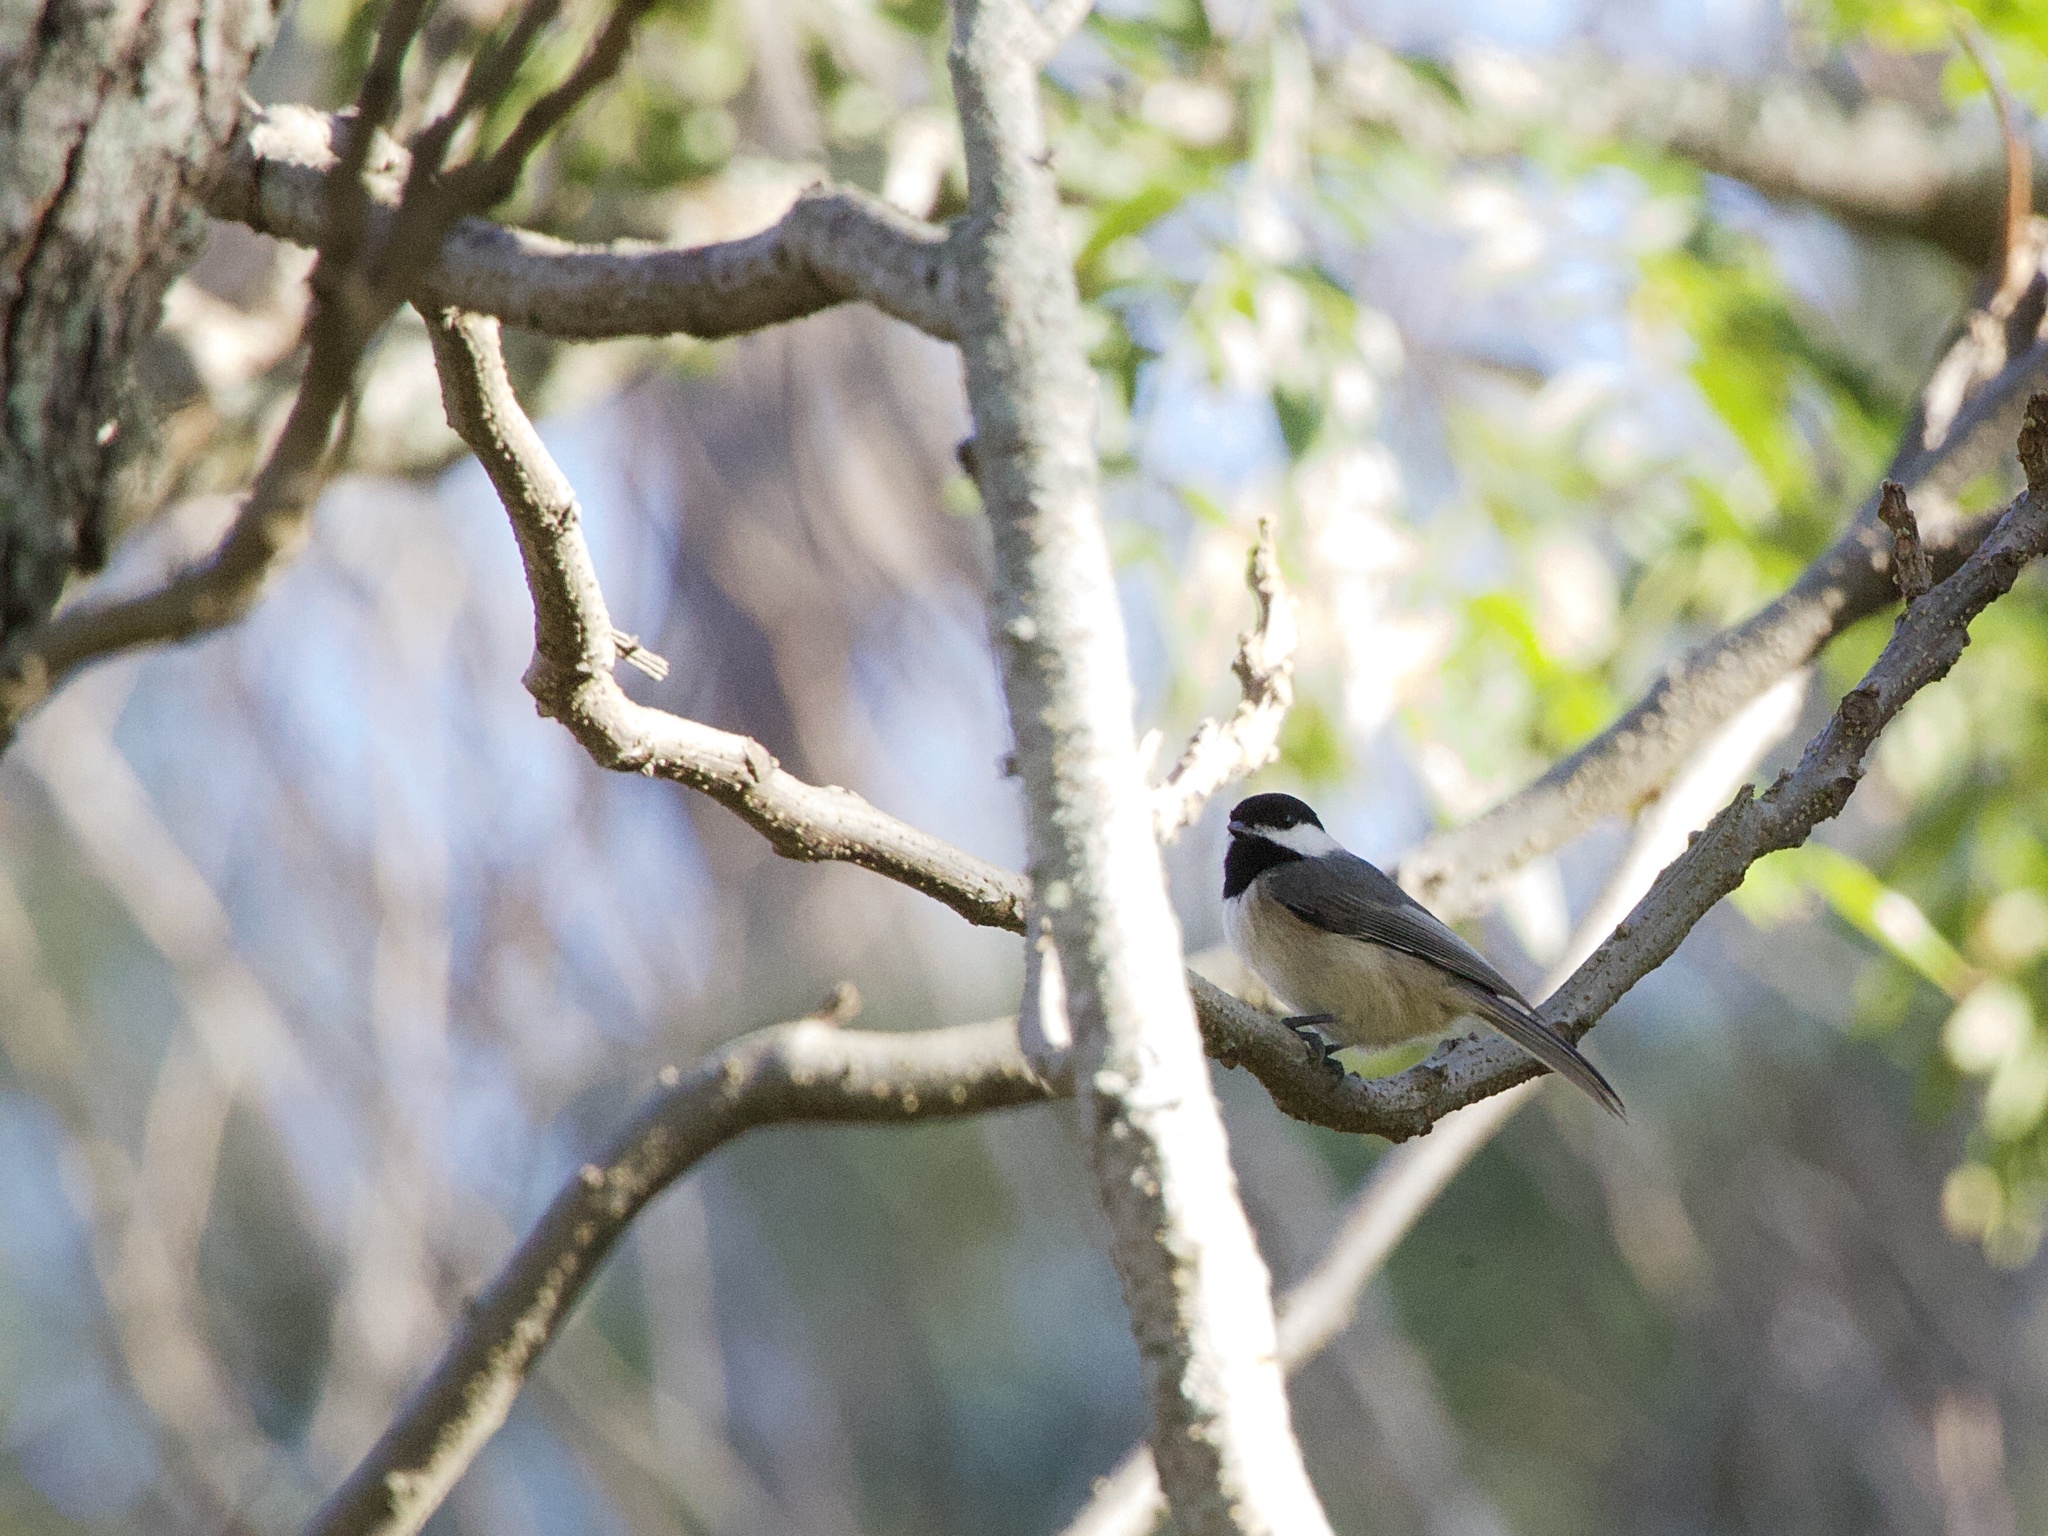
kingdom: Animalia
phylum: Chordata
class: Aves
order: Passeriformes
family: Paridae
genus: Poecile
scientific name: Poecile carolinensis
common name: Carolina chickadee
